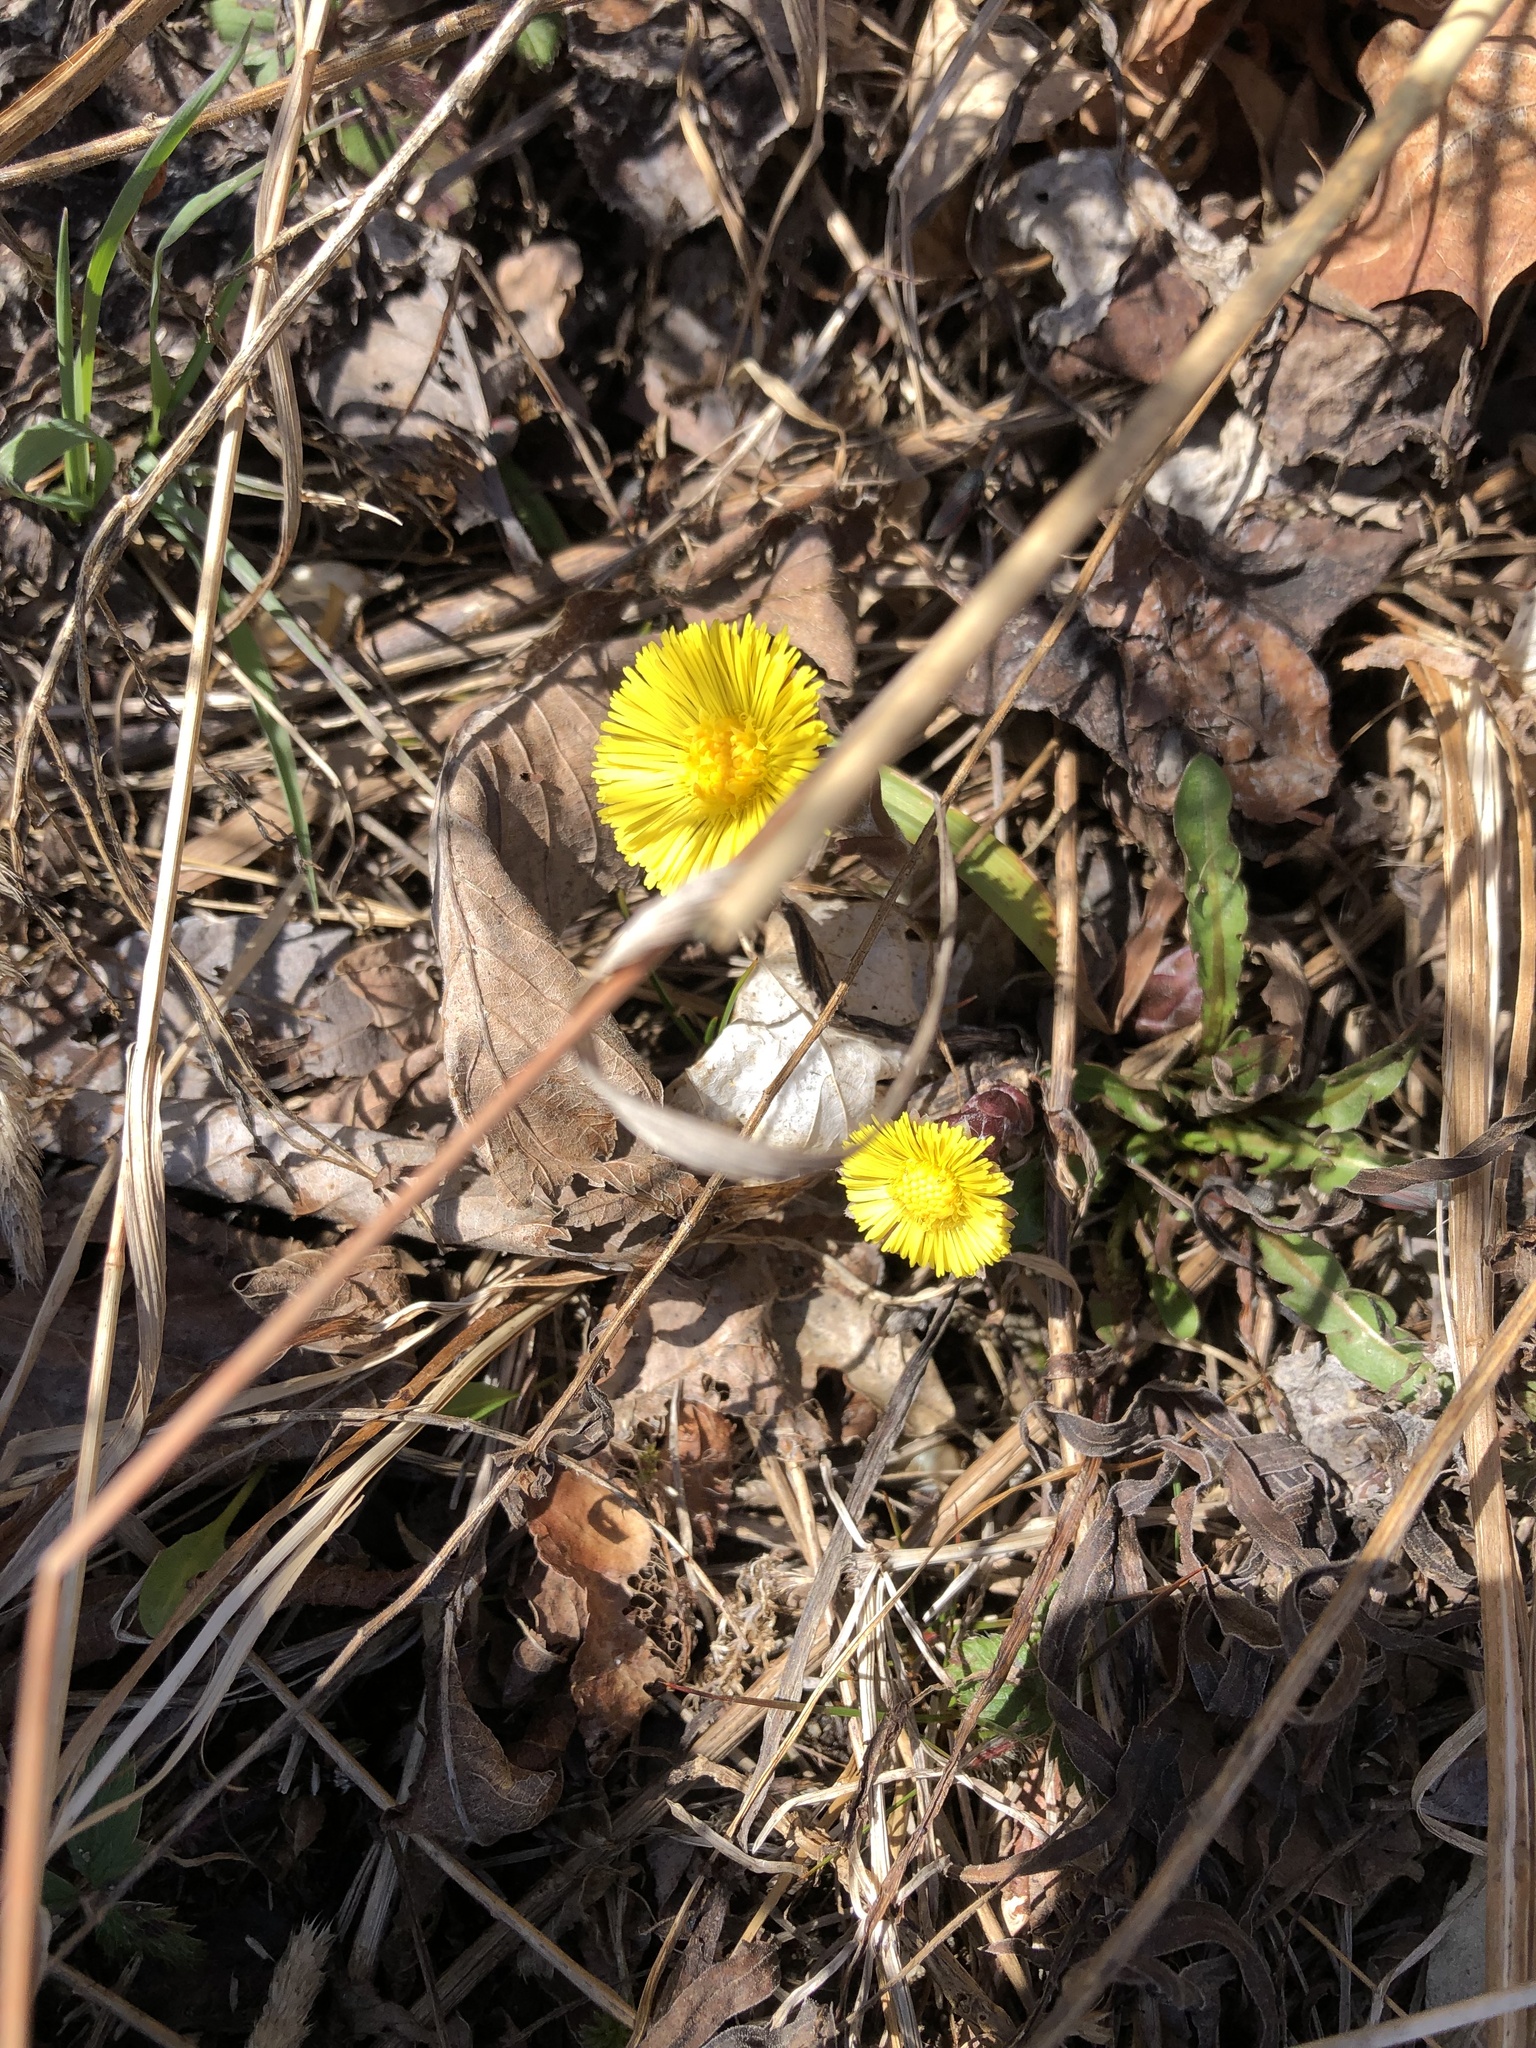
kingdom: Plantae
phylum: Tracheophyta
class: Magnoliopsida
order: Asterales
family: Asteraceae
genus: Tussilago
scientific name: Tussilago farfara
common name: Coltsfoot
